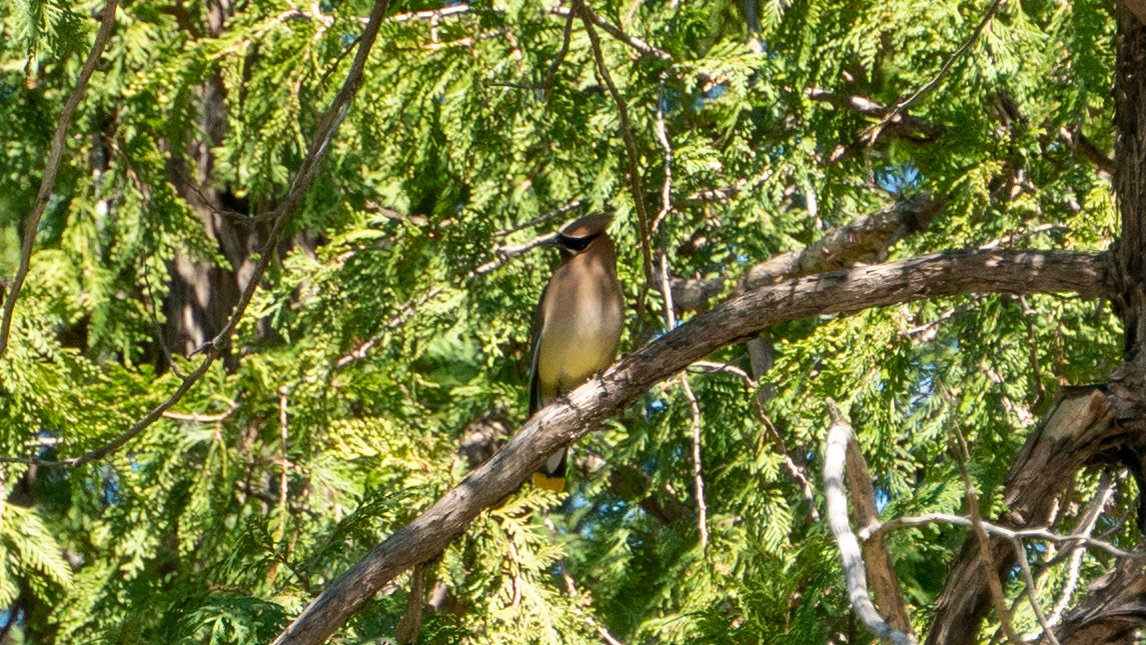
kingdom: Animalia
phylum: Chordata
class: Aves
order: Passeriformes
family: Bombycillidae
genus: Bombycilla
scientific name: Bombycilla cedrorum
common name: Cedar waxwing
